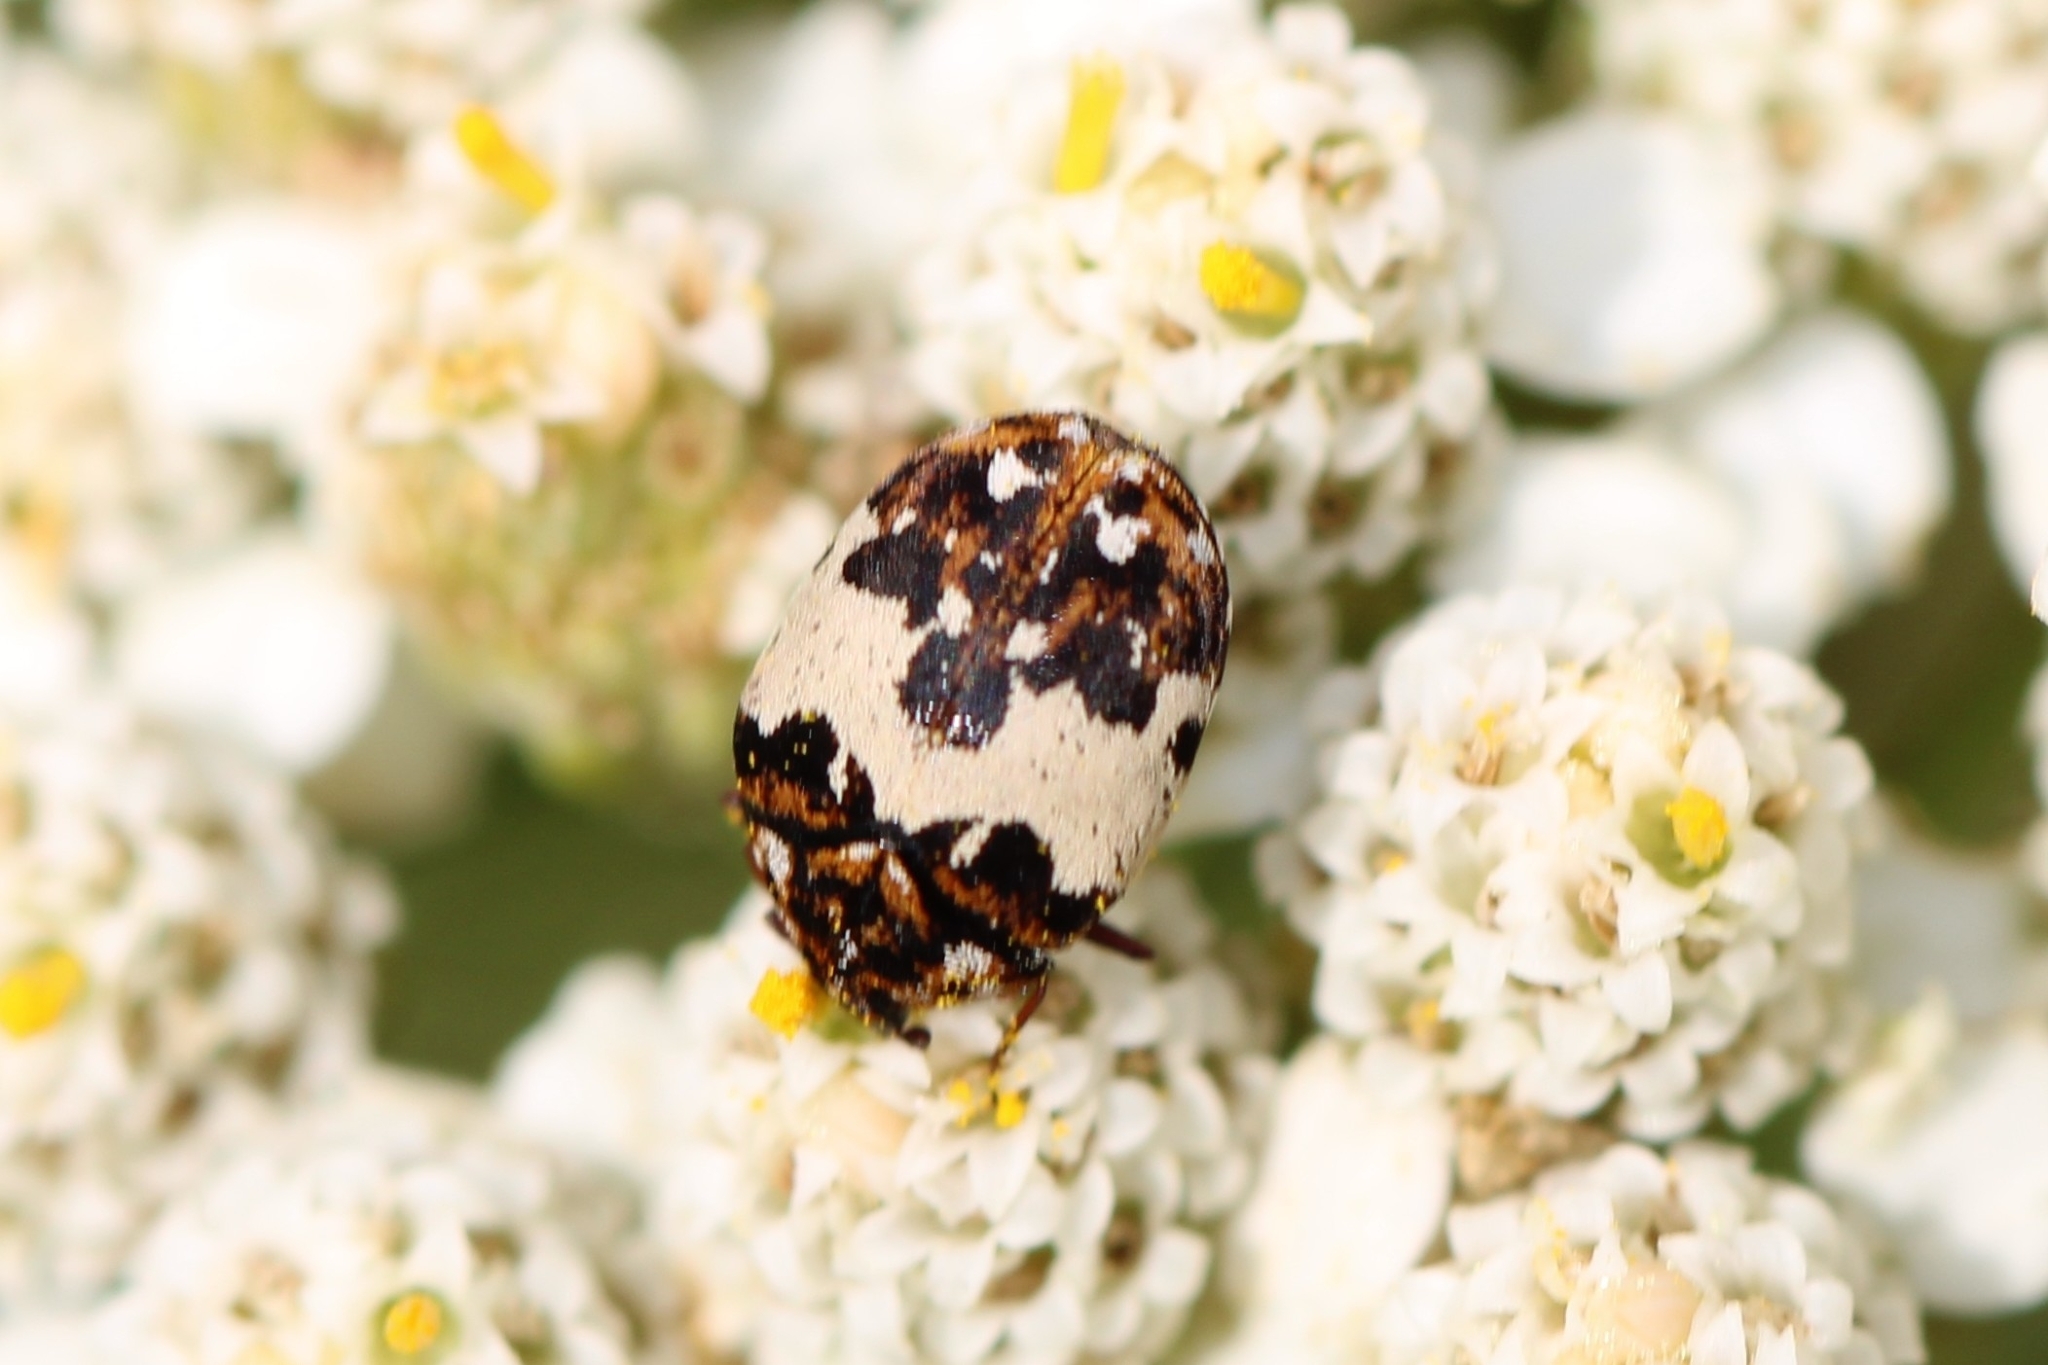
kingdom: Animalia
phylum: Arthropoda
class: Insecta
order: Coleoptera
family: Dermestidae
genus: Anthrenus
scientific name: Anthrenus isabellinus
